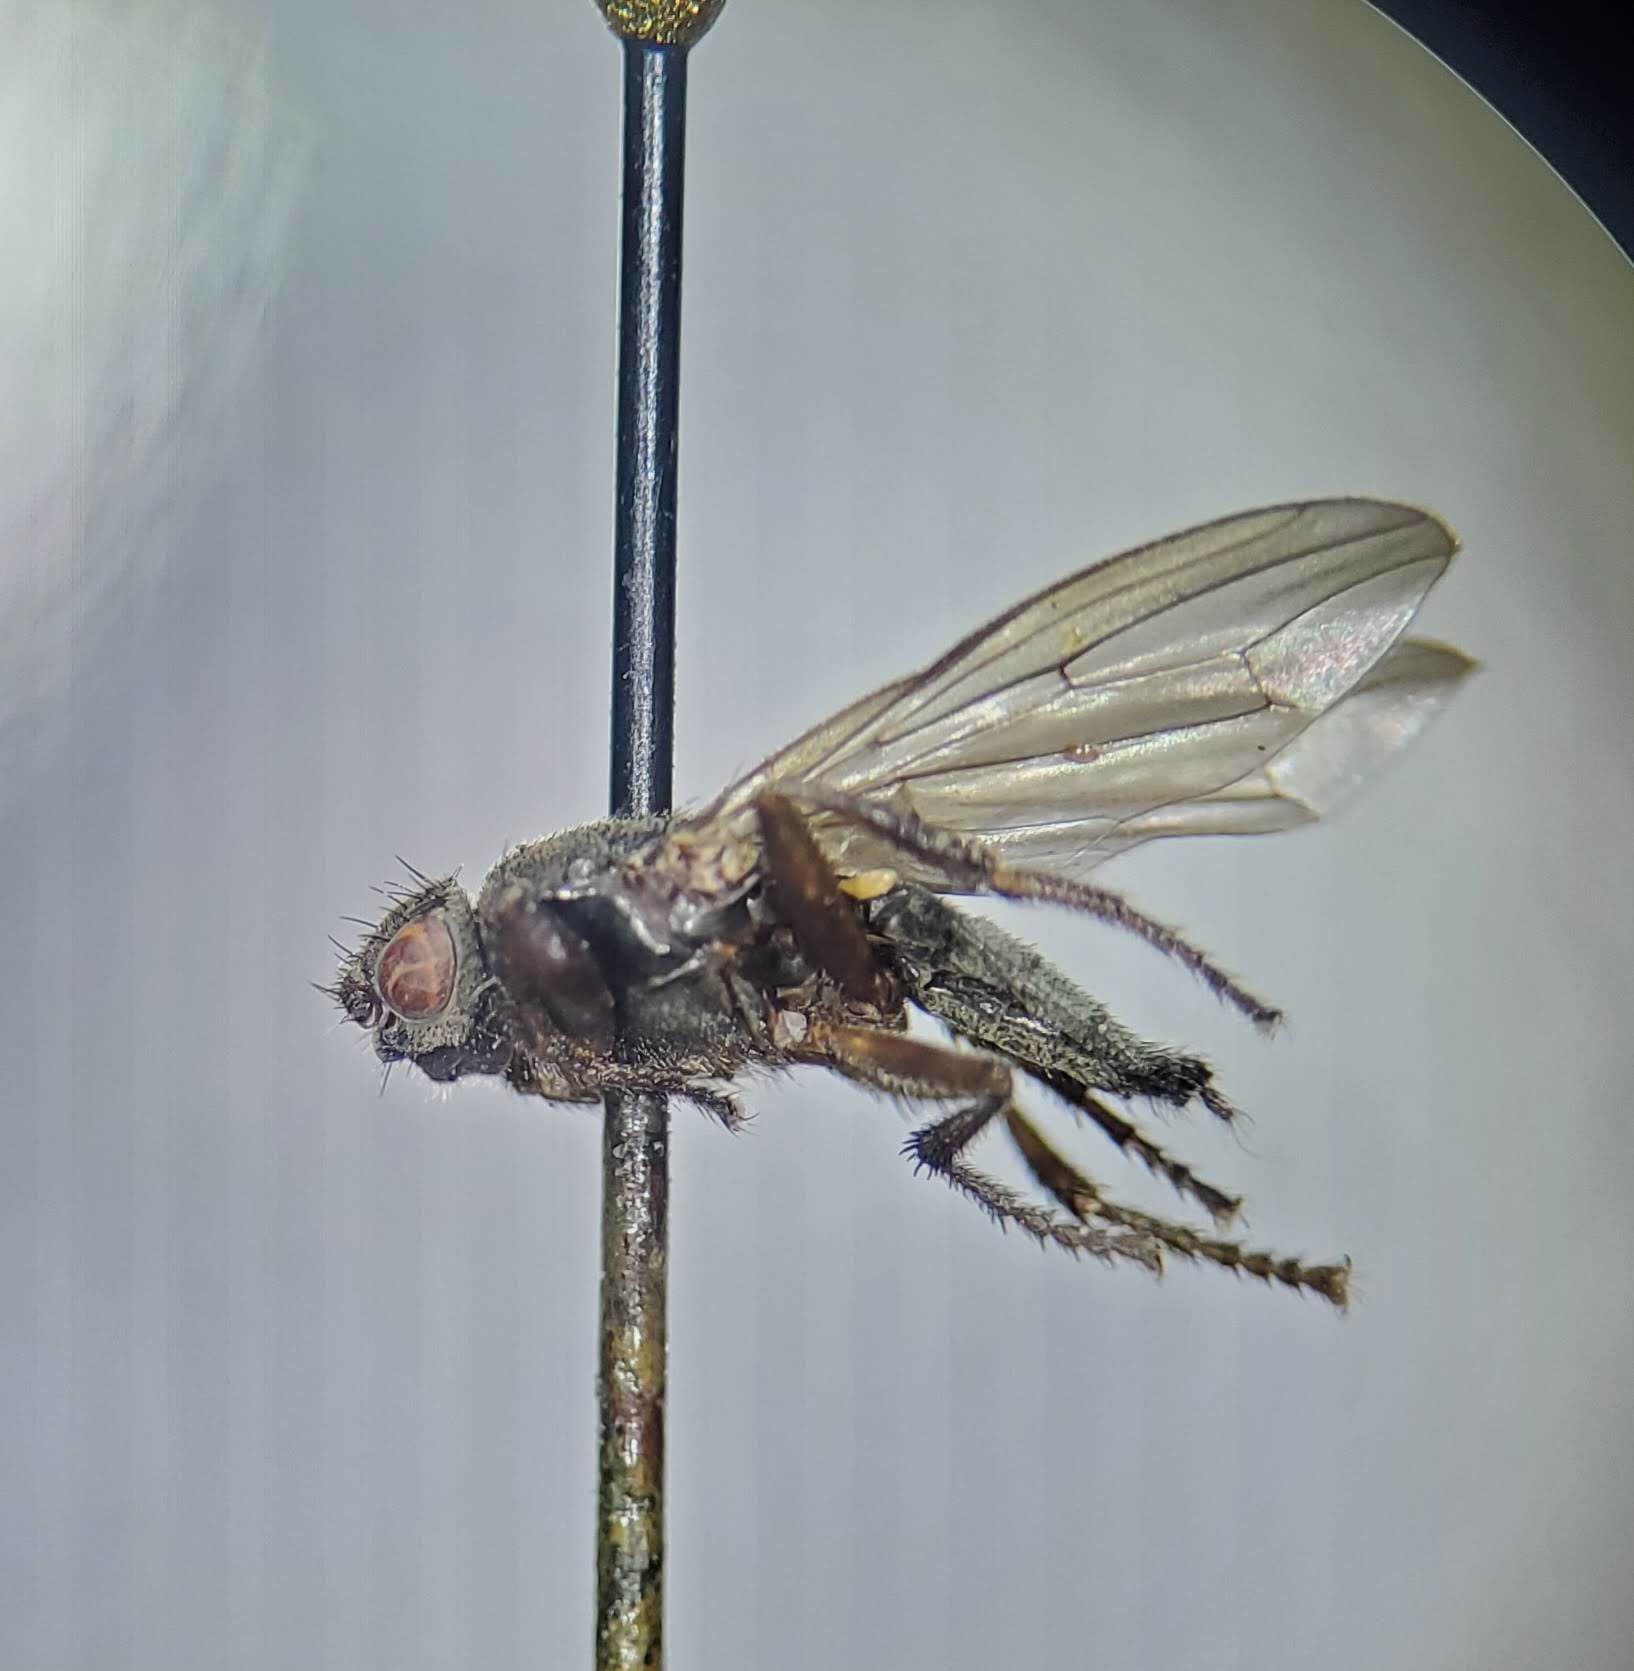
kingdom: Animalia
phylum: Arthropoda
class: Insecta
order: Diptera
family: Coelopidae
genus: Coelopa
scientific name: Coelopa vanduzeei
